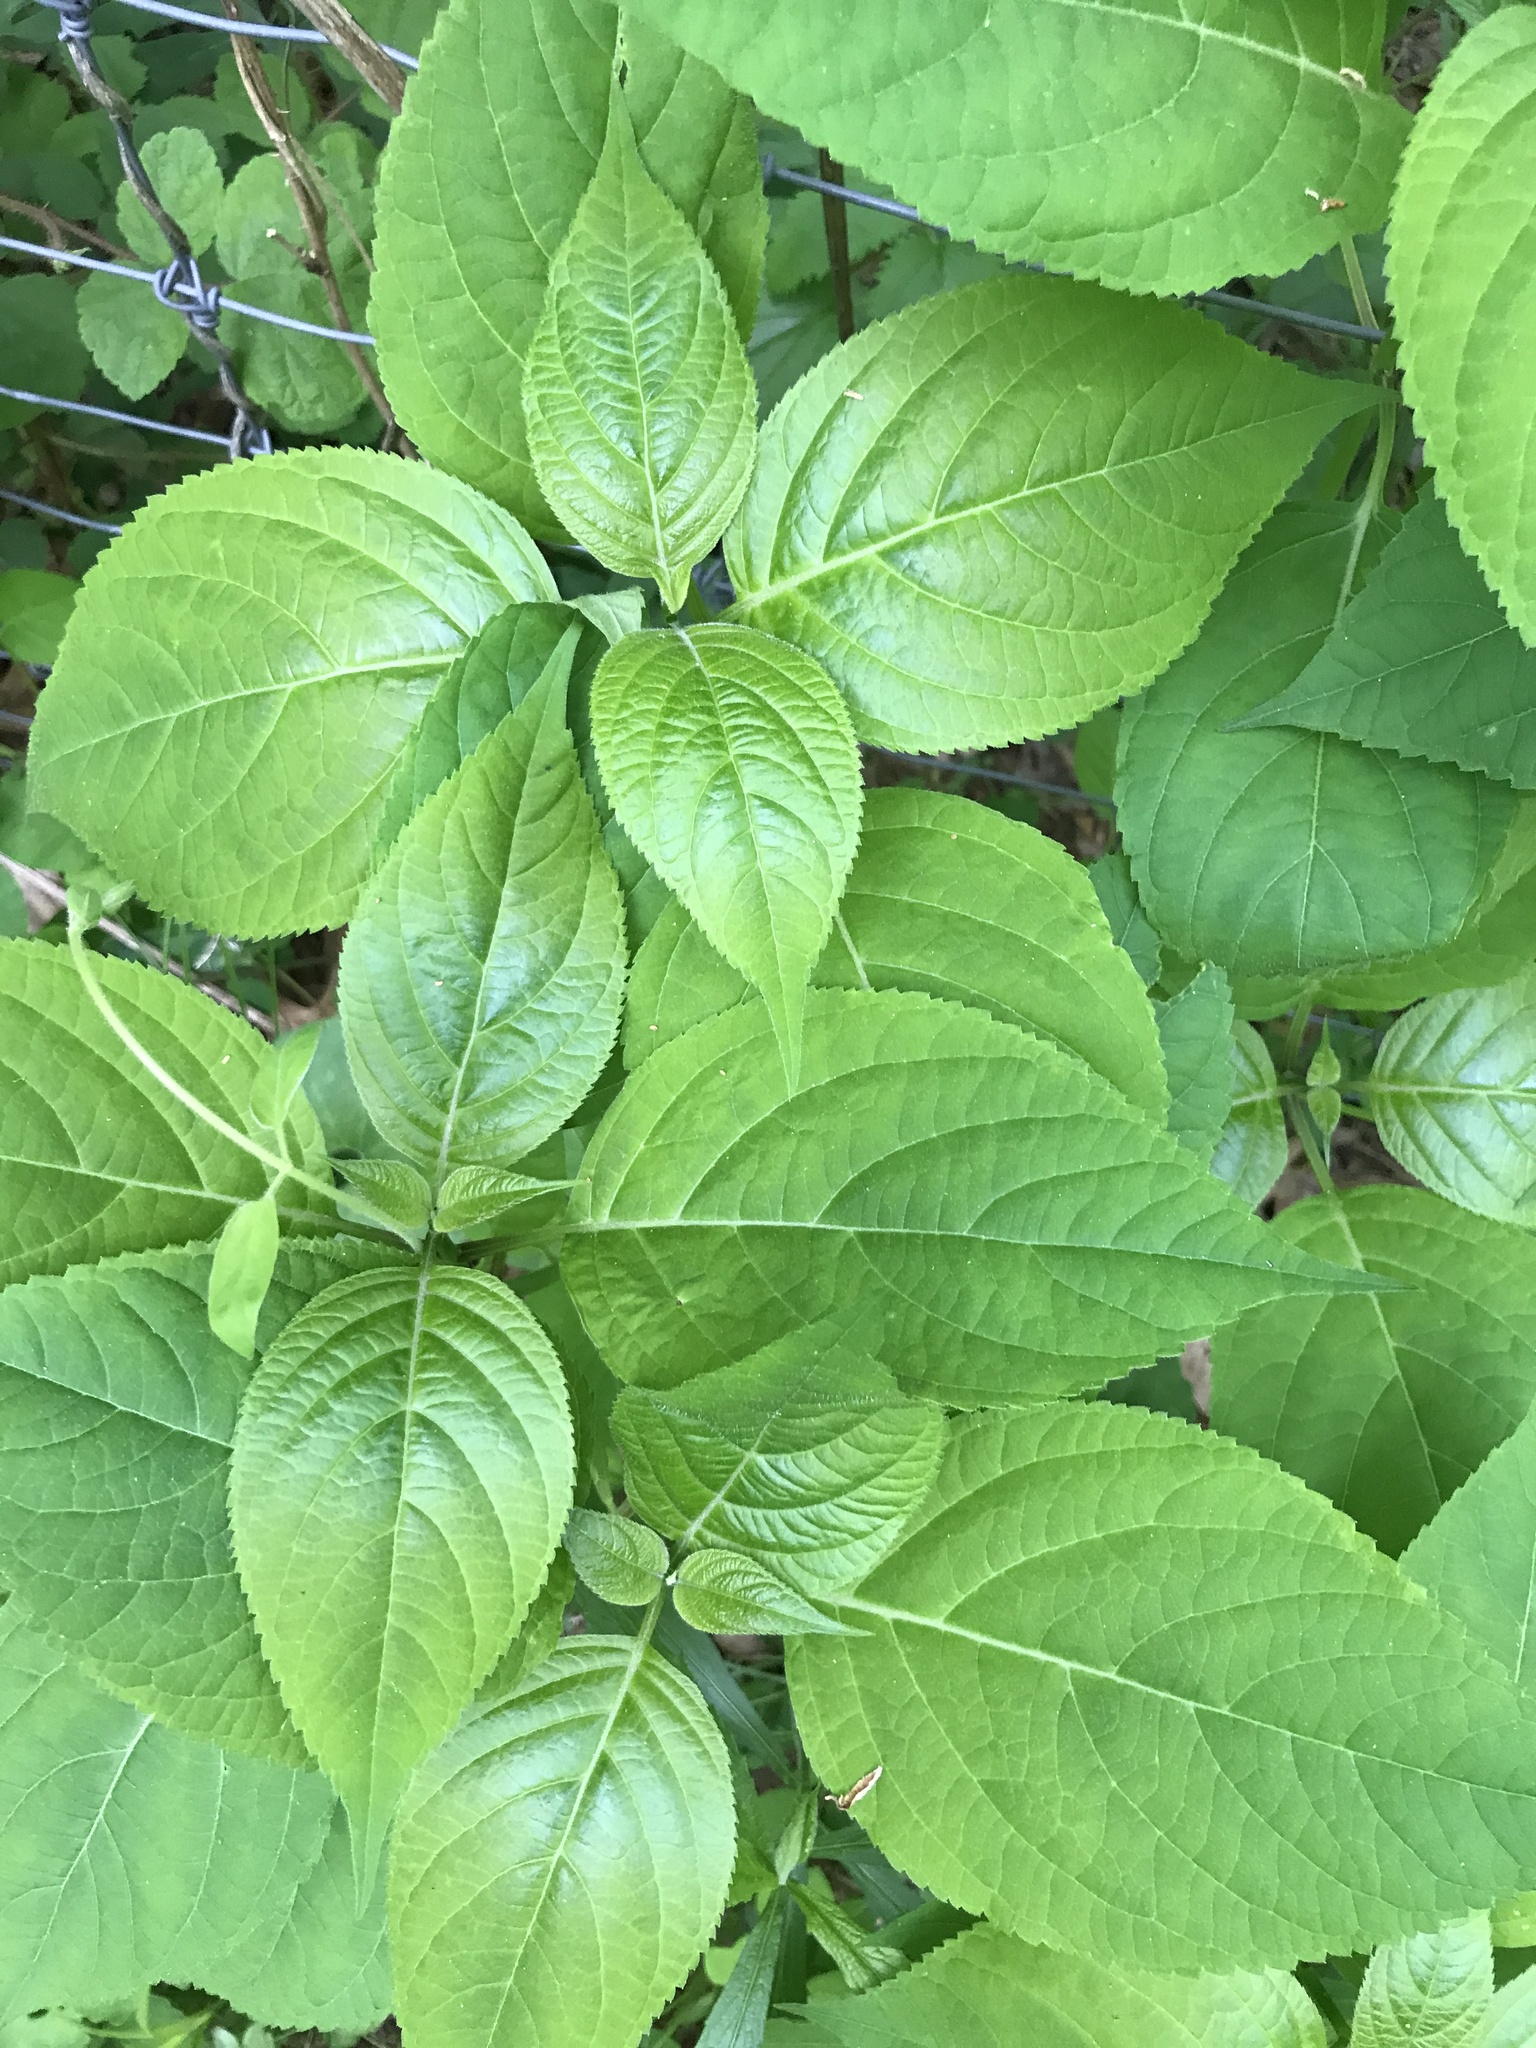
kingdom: Plantae
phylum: Tracheophyta
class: Magnoliopsida
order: Lamiales
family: Lamiaceae
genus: Collinsonia
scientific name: Collinsonia canadensis
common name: Northern horsebalm
